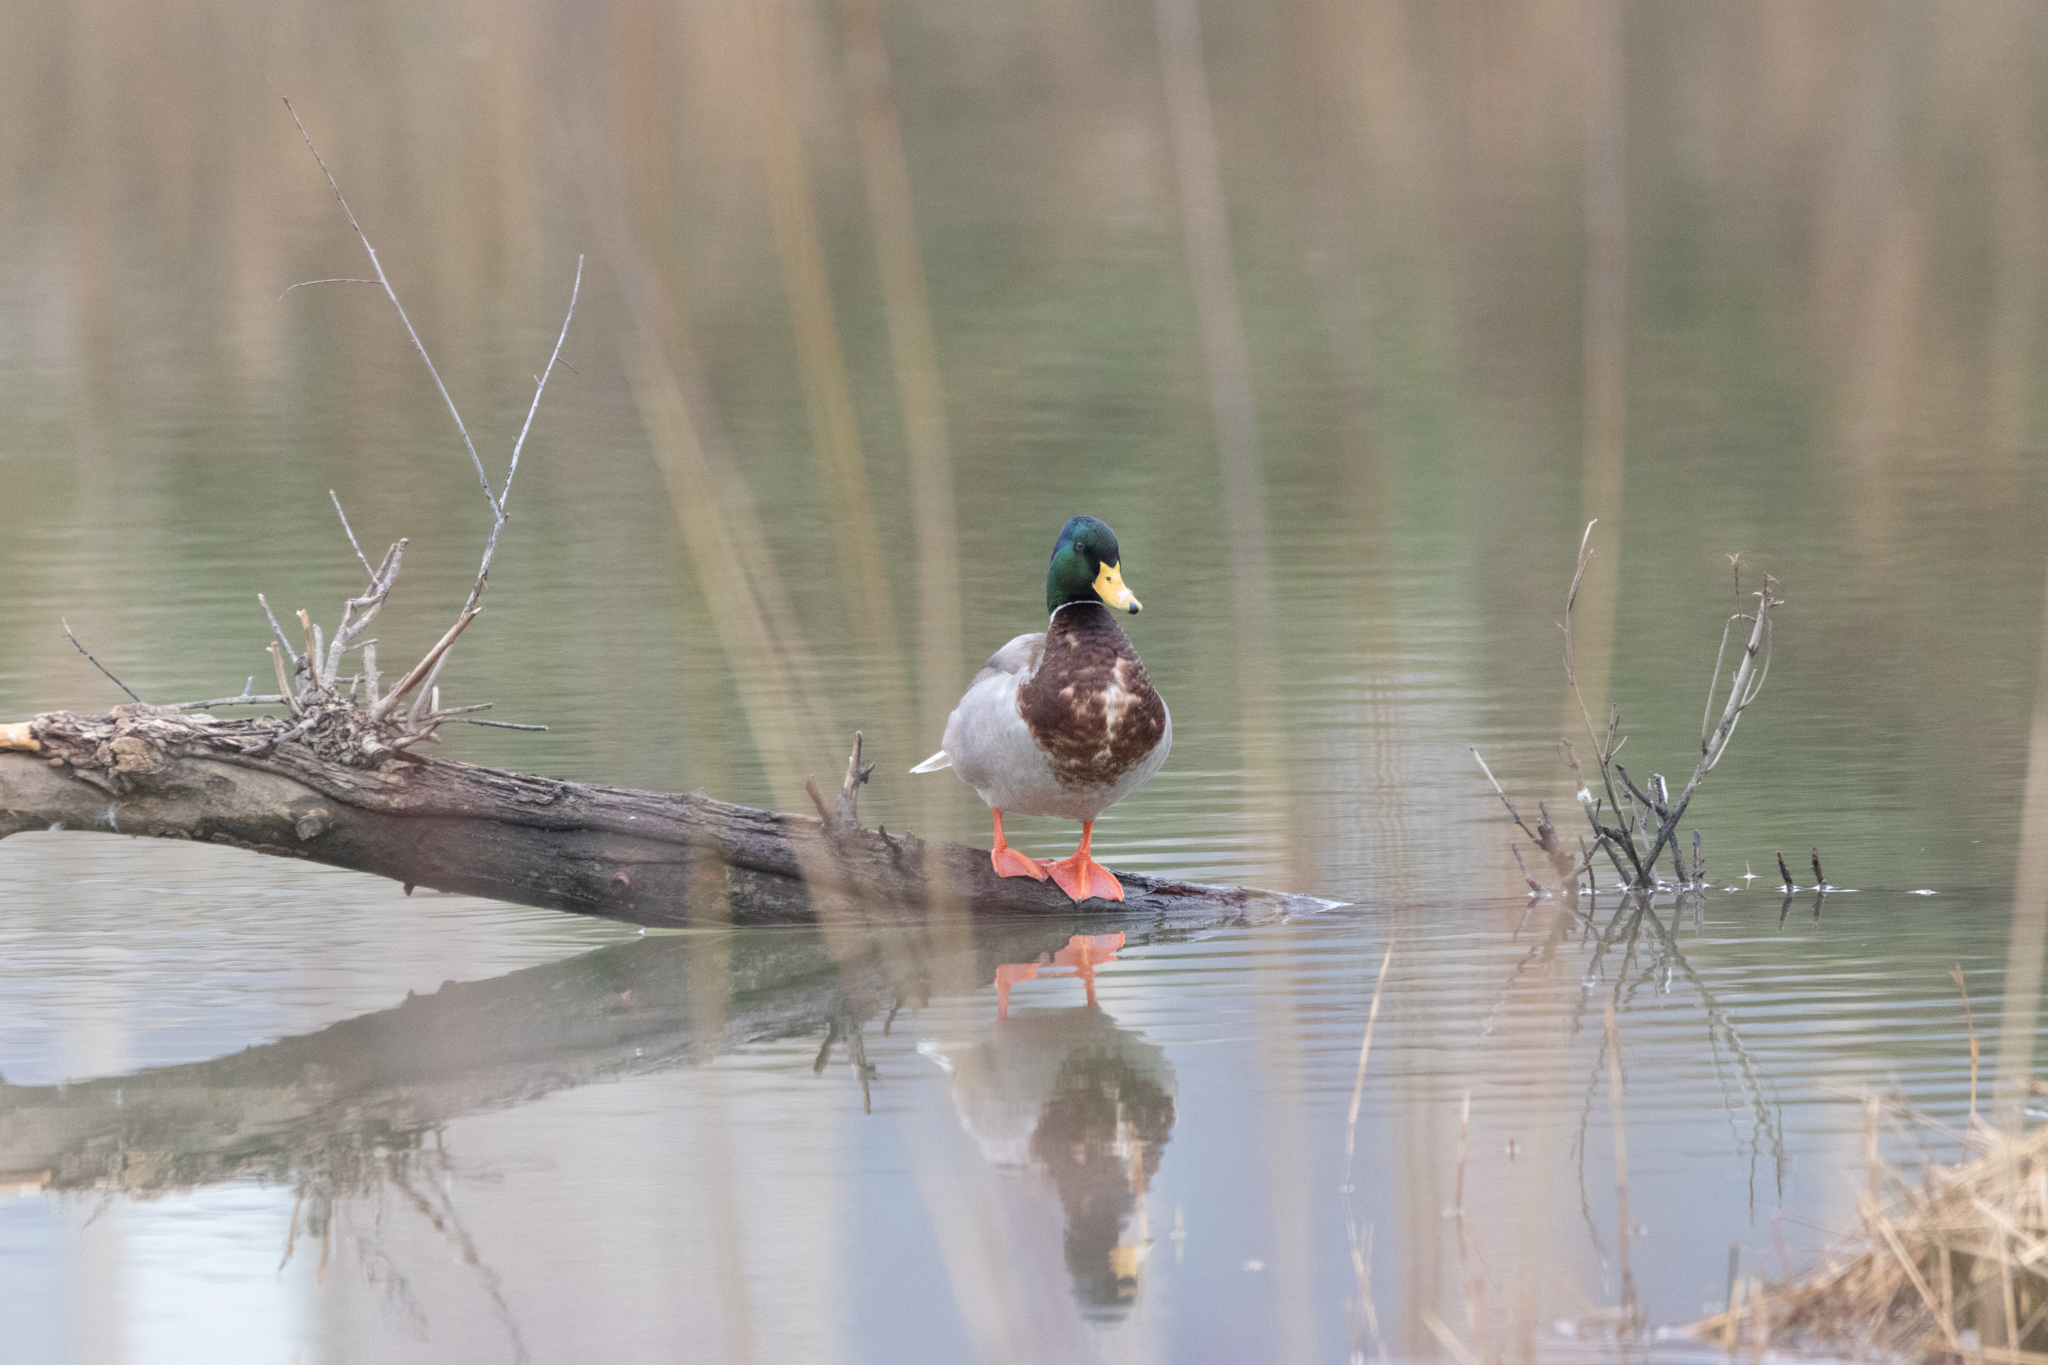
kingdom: Animalia
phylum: Chordata
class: Aves
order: Anseriformes
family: Anatidae
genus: Anas
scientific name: Anas platyrhynchos
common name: Mallard
